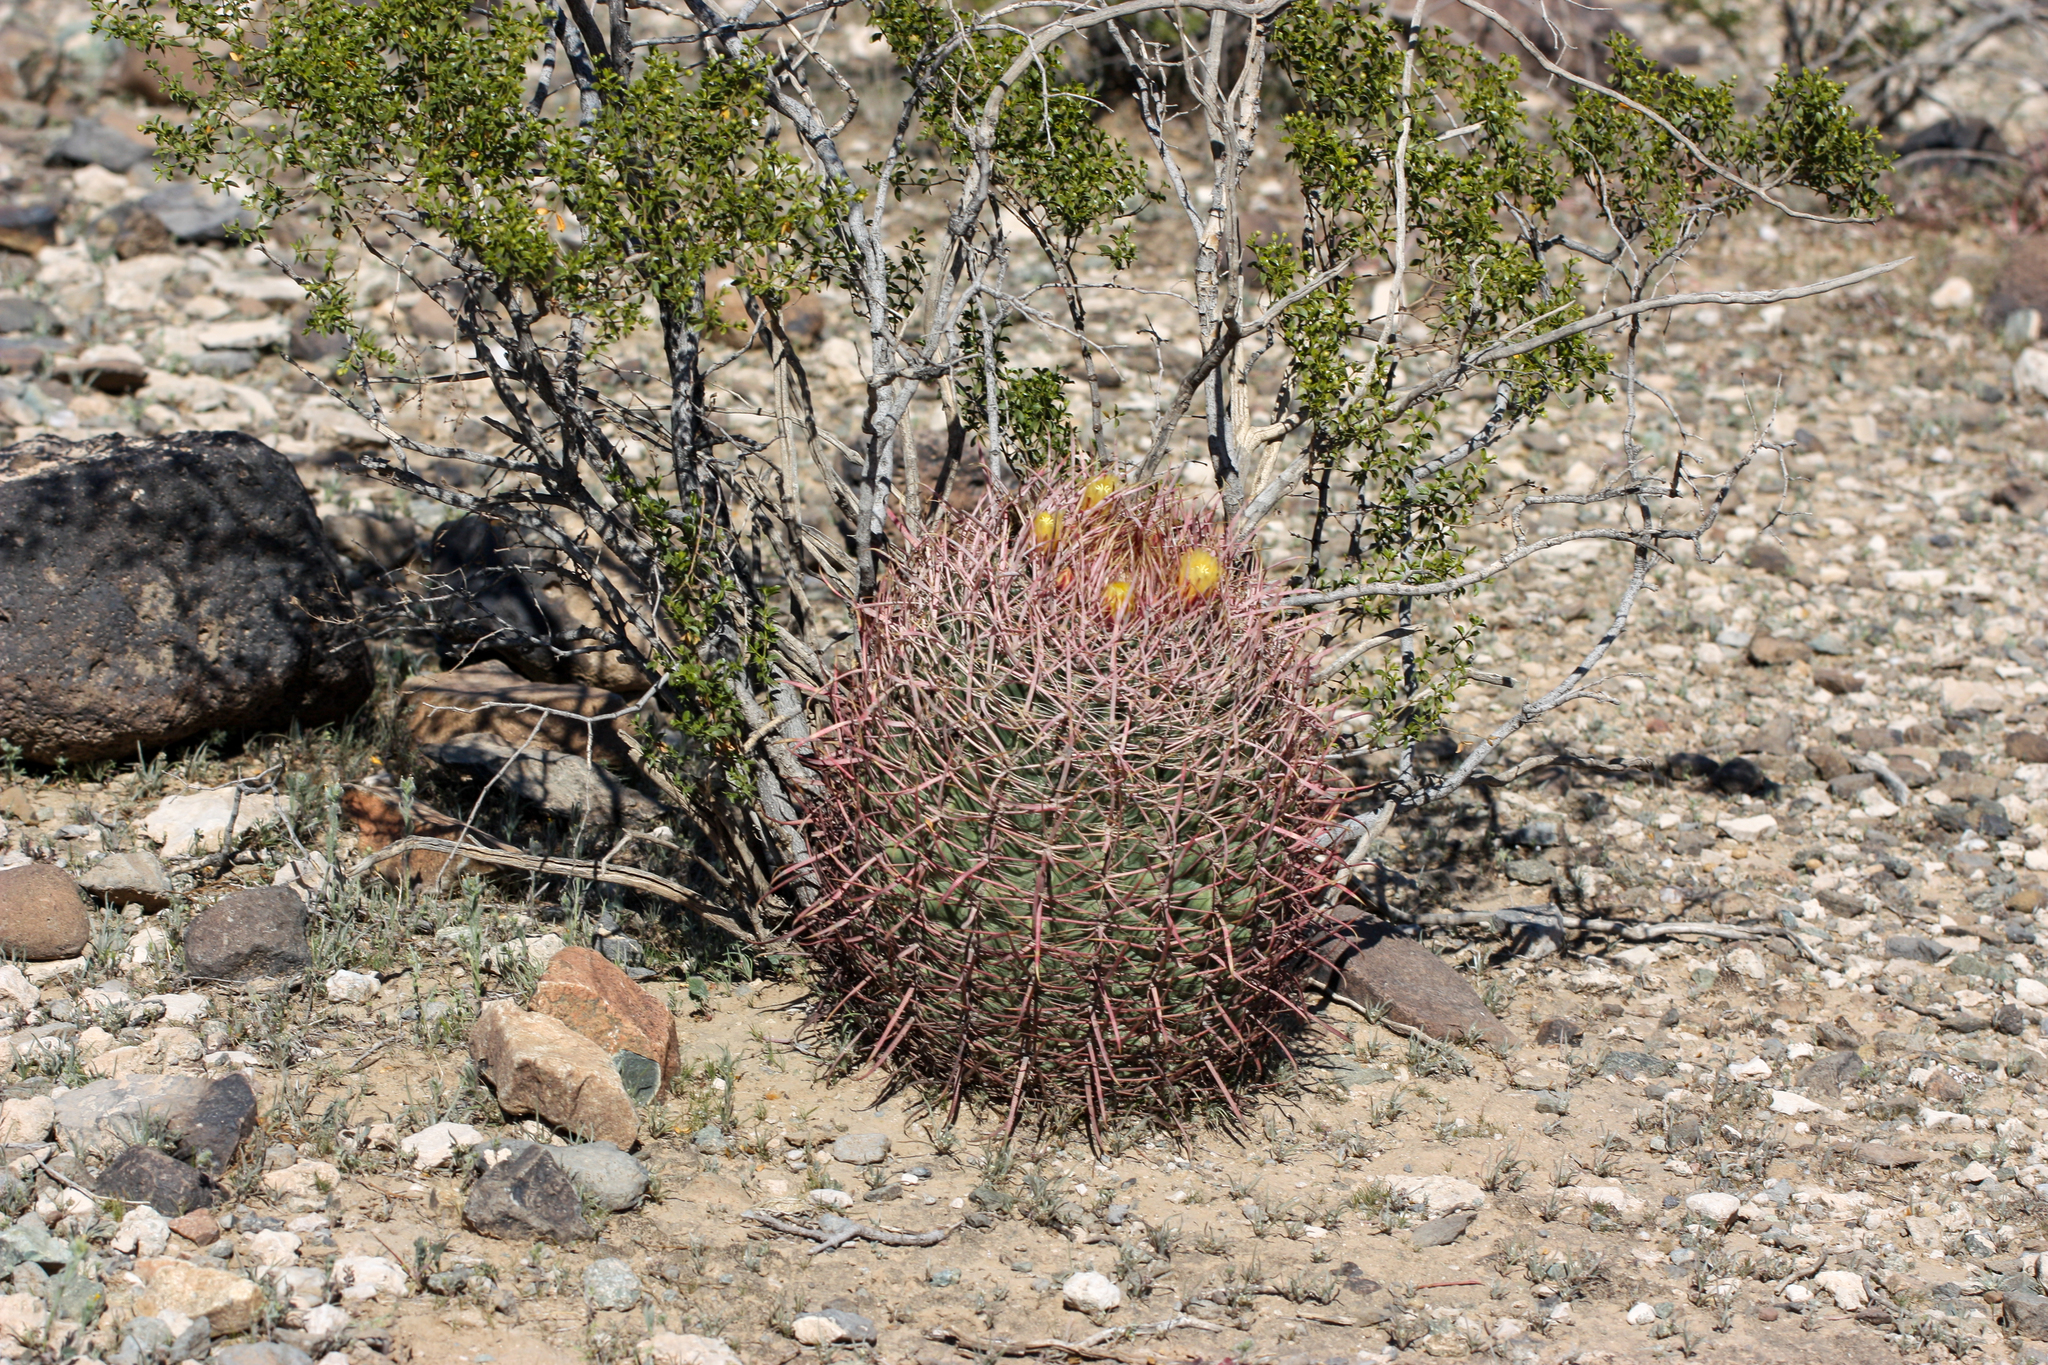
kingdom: Plantae
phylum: Tracheophyta
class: Magnoliopsida
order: Caryophyllales
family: Cactaceae
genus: Ferocactus
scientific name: Ferocactus cylindraceus
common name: California barrel cactus
